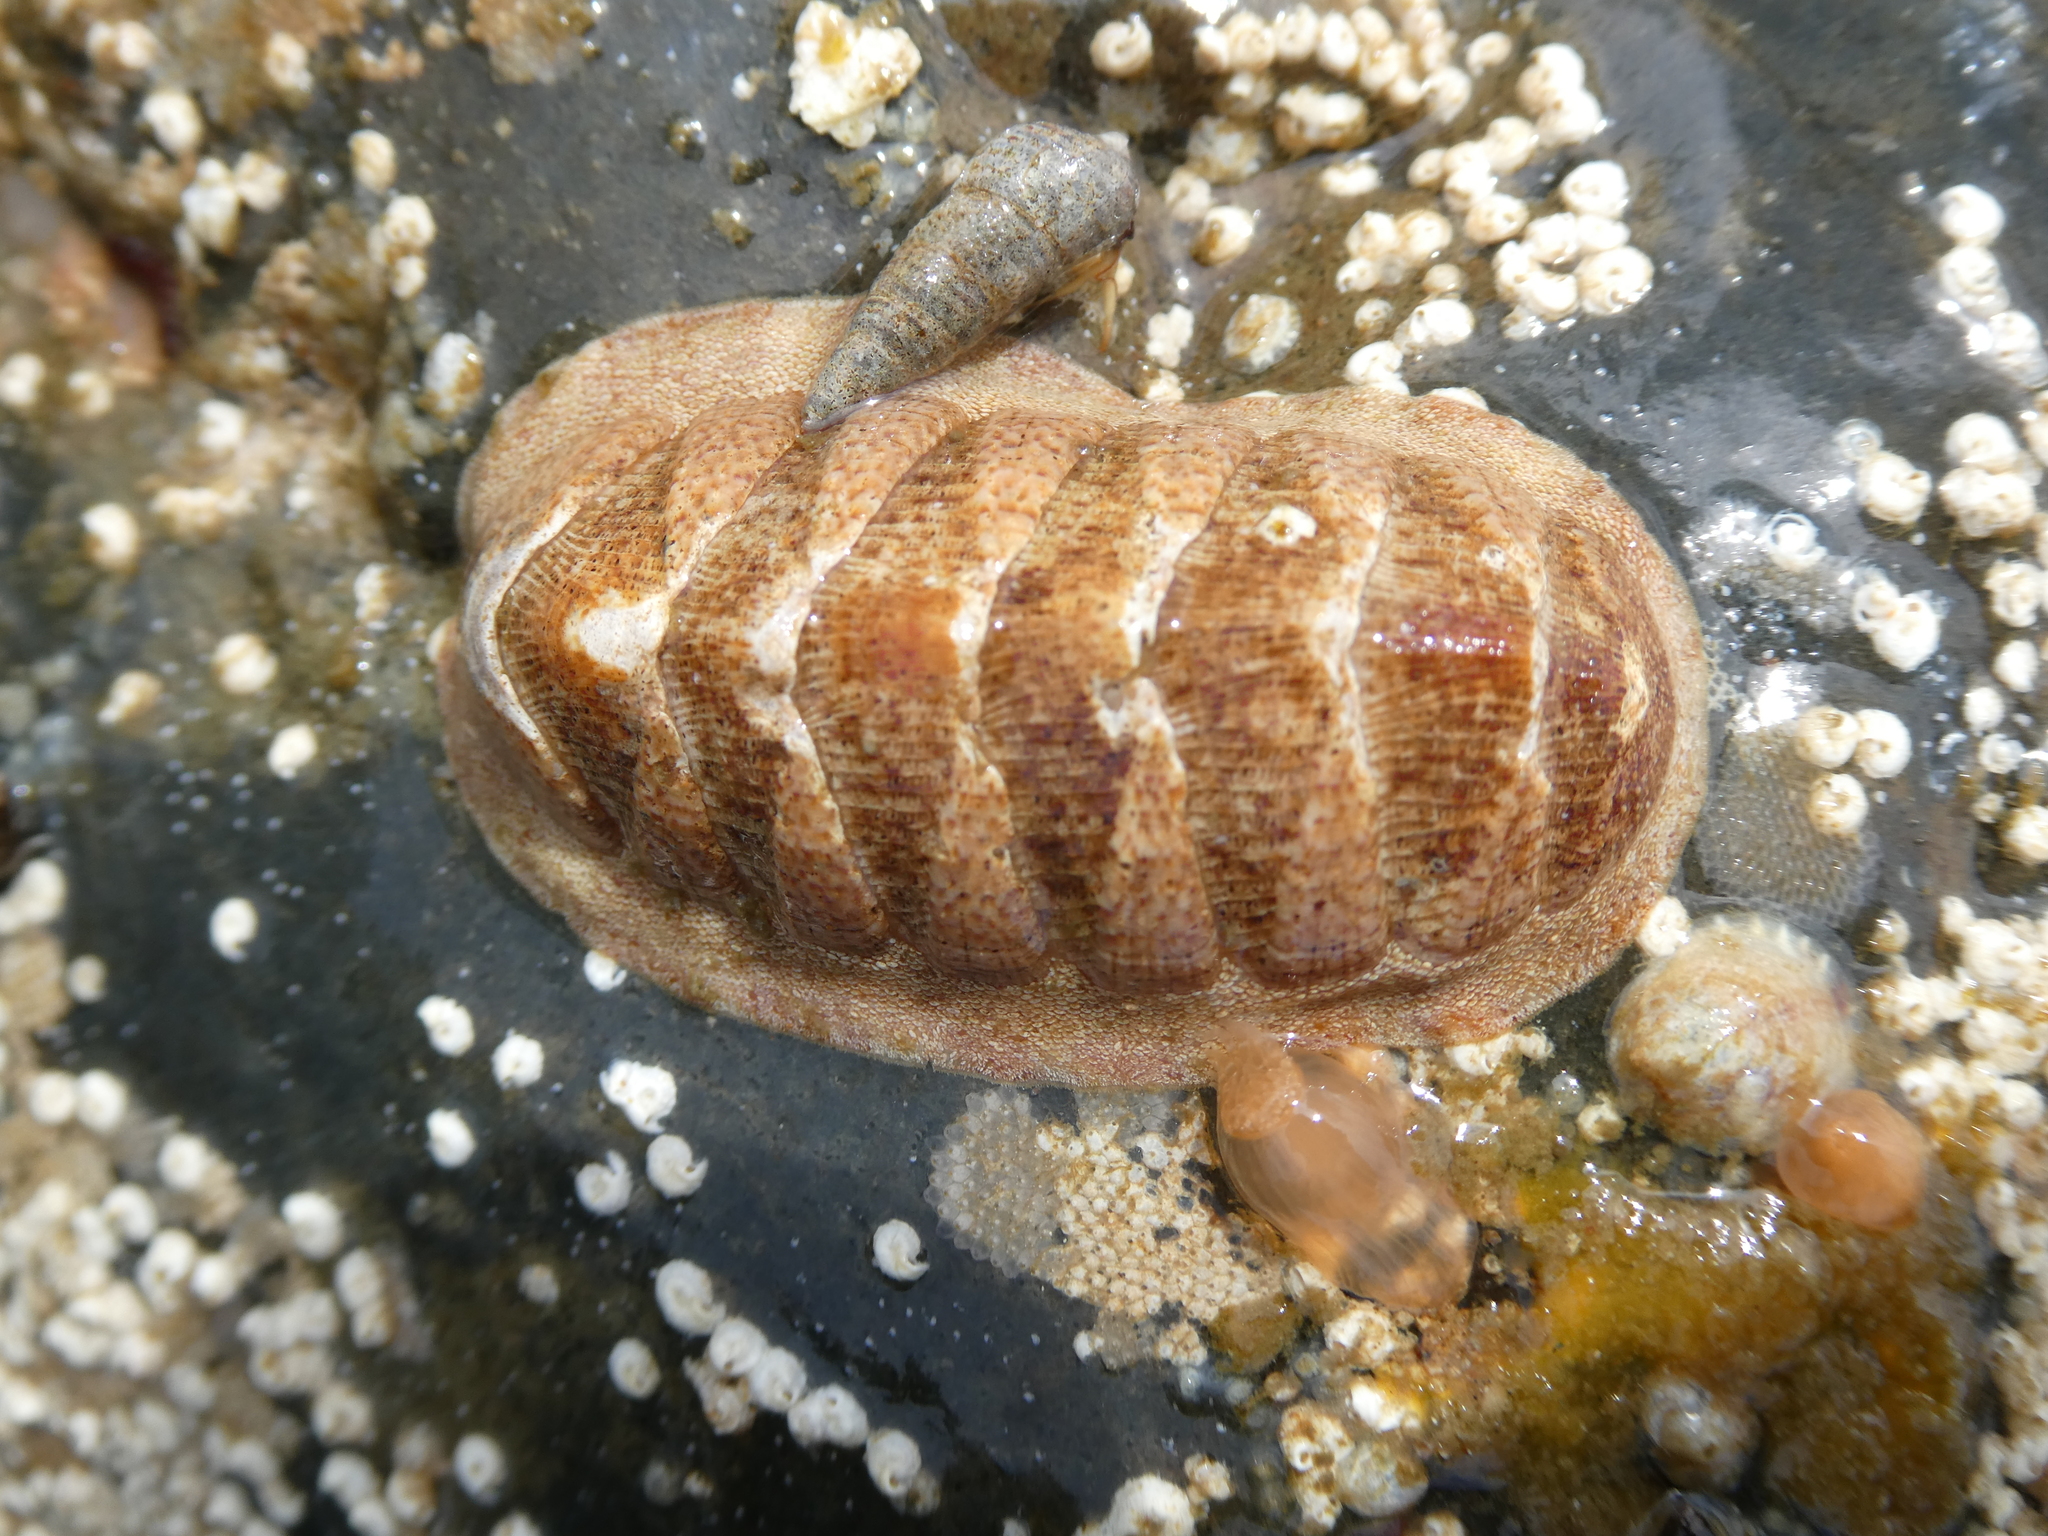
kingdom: Animalia
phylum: Mollusca
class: Polyplacophora
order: Chitonida
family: Ischnochitonidae
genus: Lepidozona
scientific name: Lepidozona mertensii
